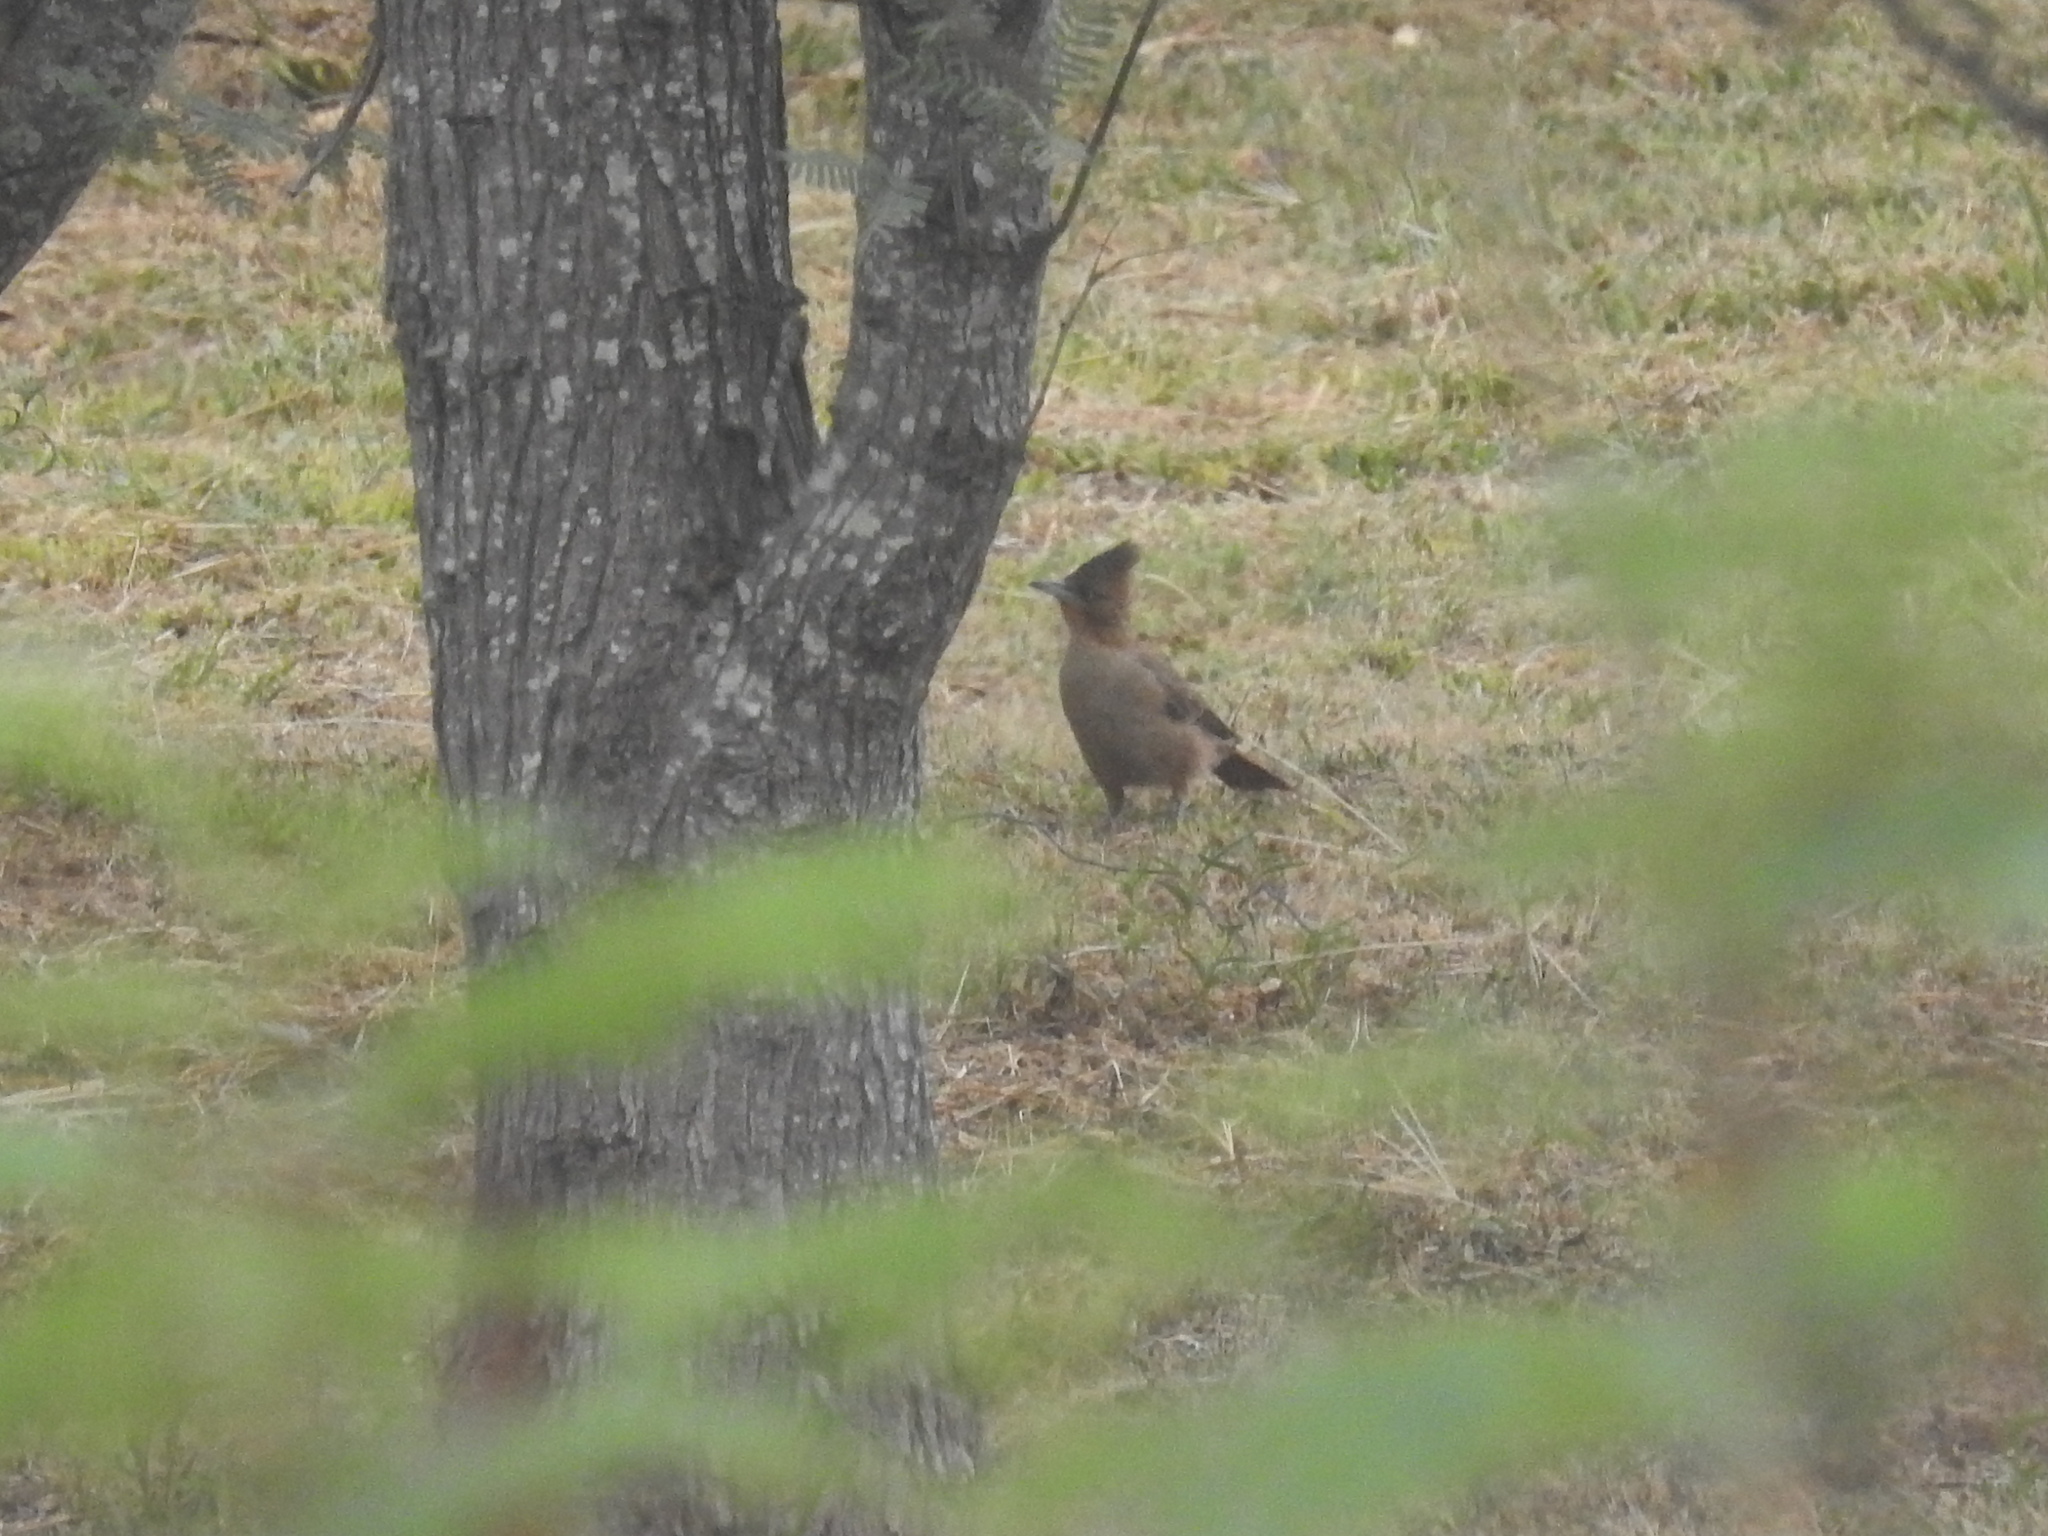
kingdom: Animalia
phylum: Chordata
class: Aves
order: Passeriformes
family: Furnariidae
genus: Pseudoseisura
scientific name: Pseudoseisura lophotes
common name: Brown cacholote
